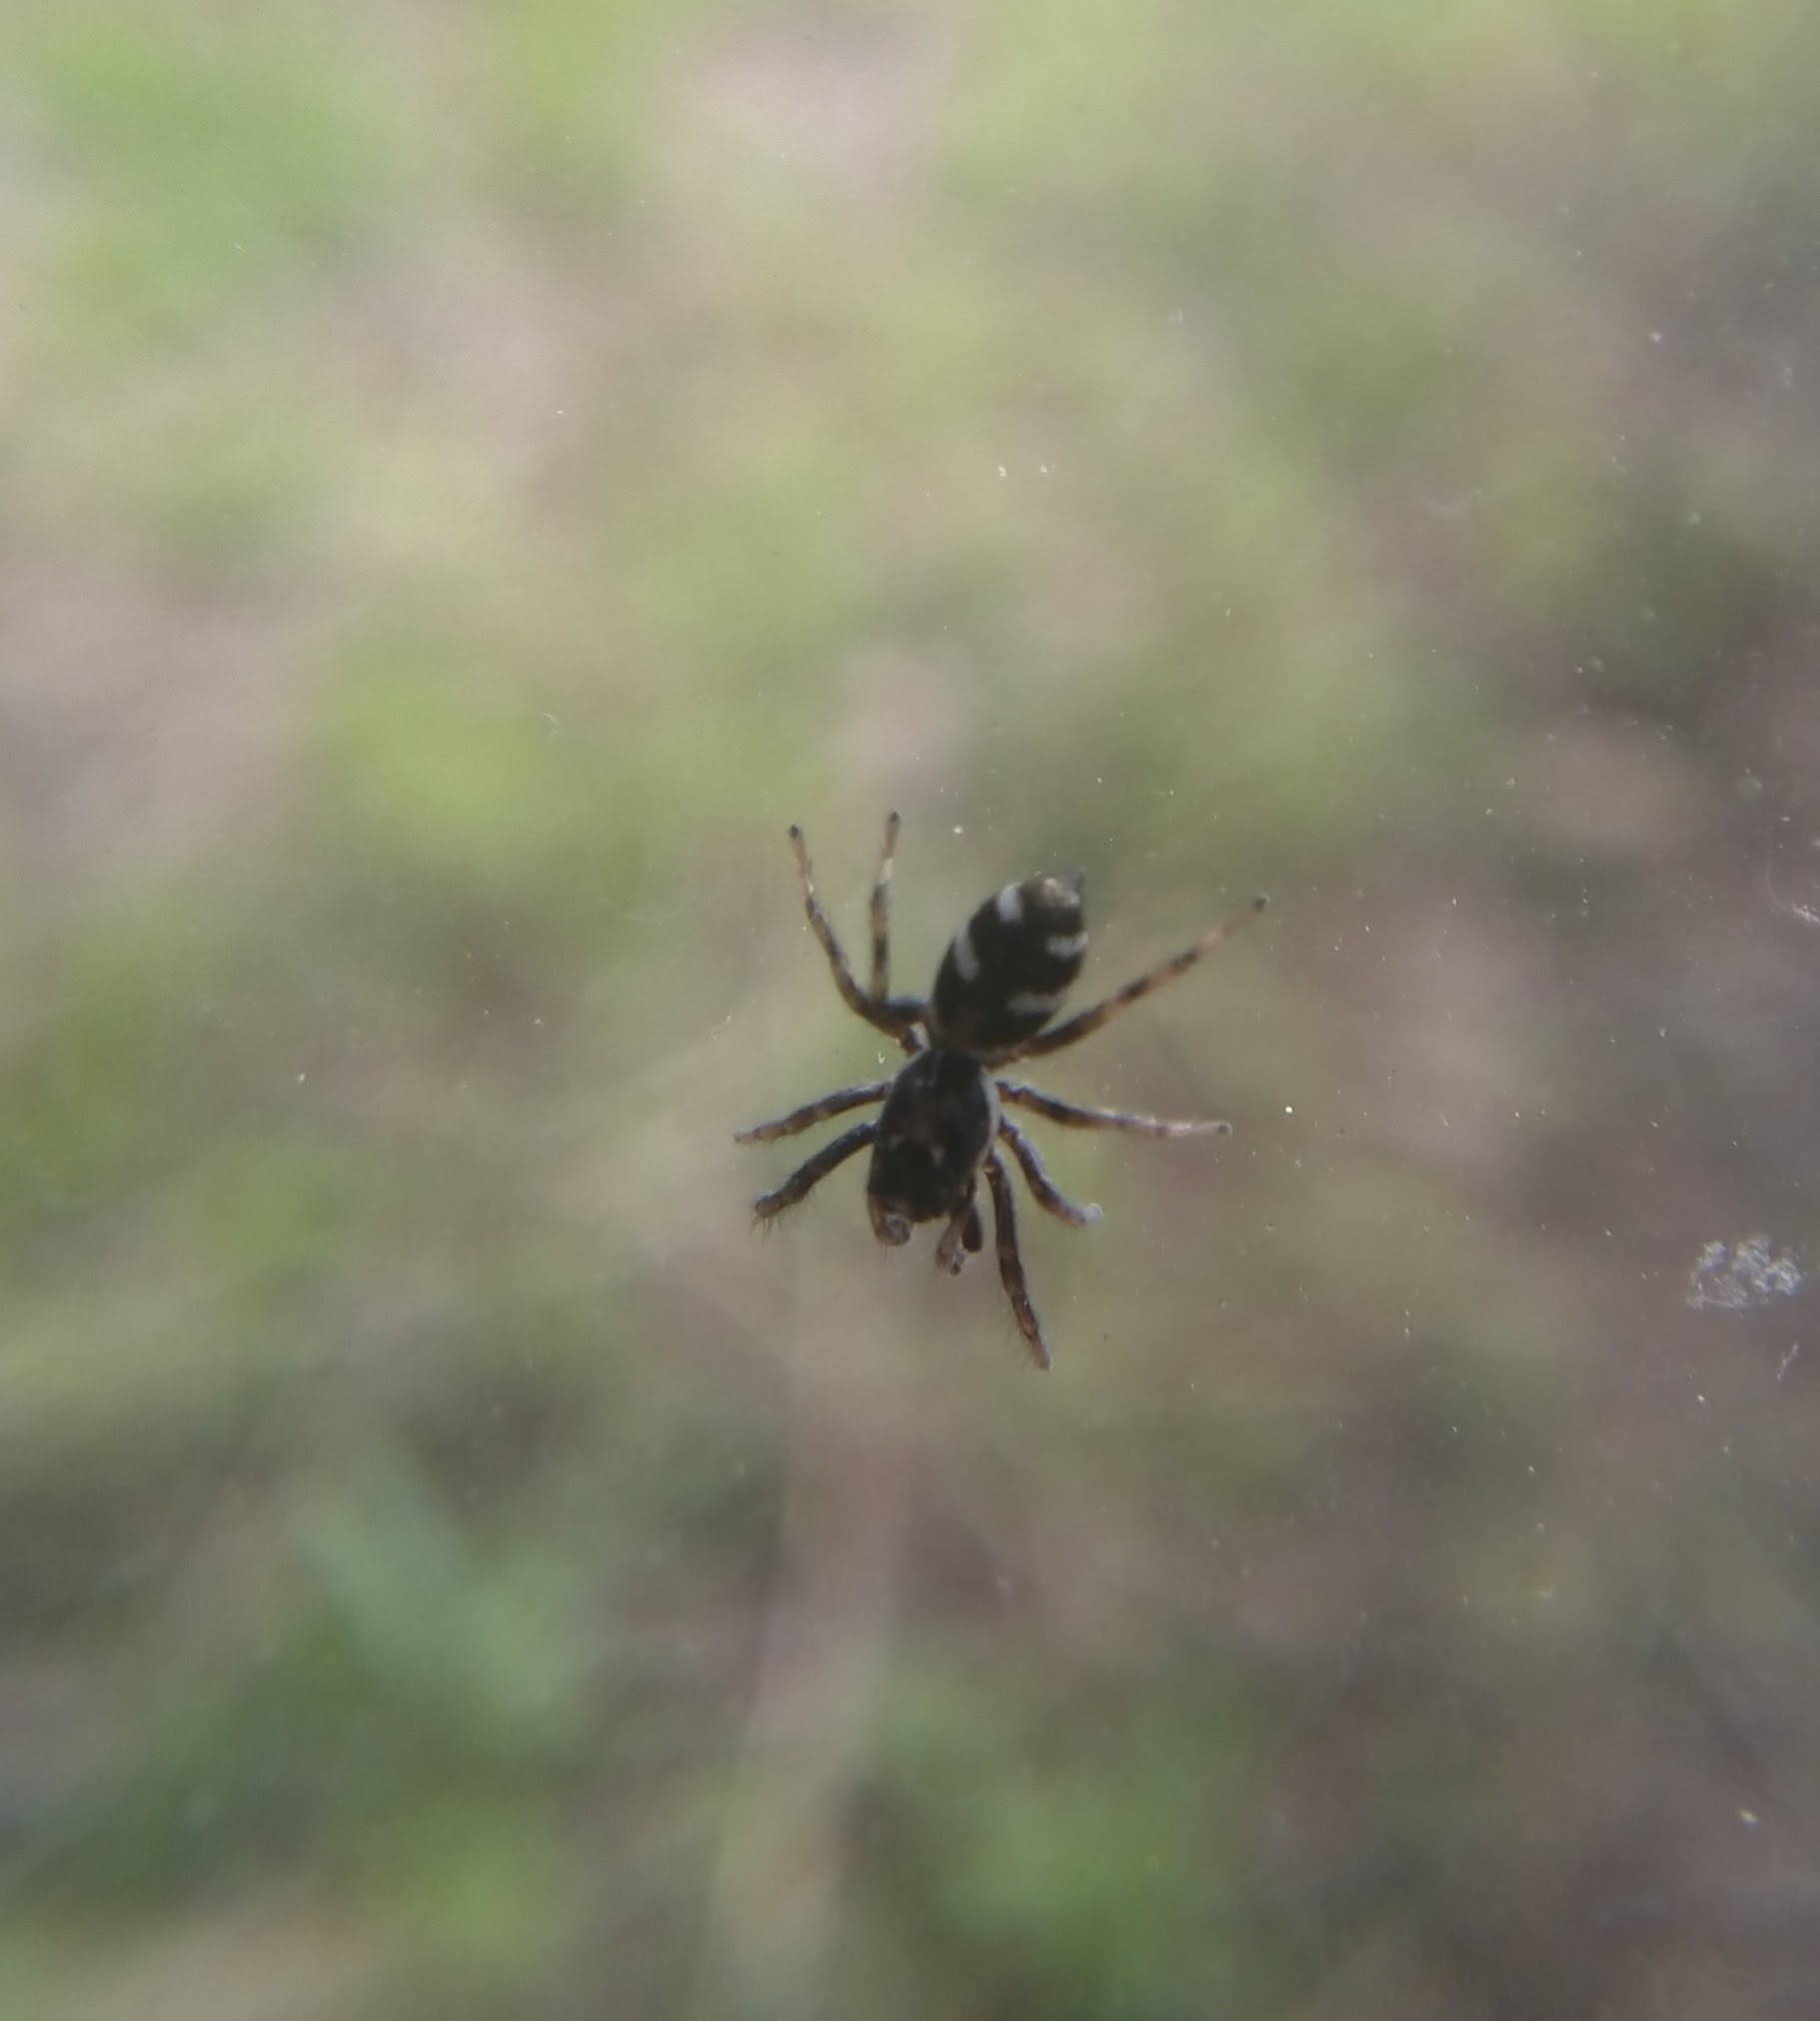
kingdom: Animalia
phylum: Arthropoda
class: Arachnida
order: Araneae
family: Salticidae
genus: Salticus
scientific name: Salticus scenicus
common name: Zebra jumper
